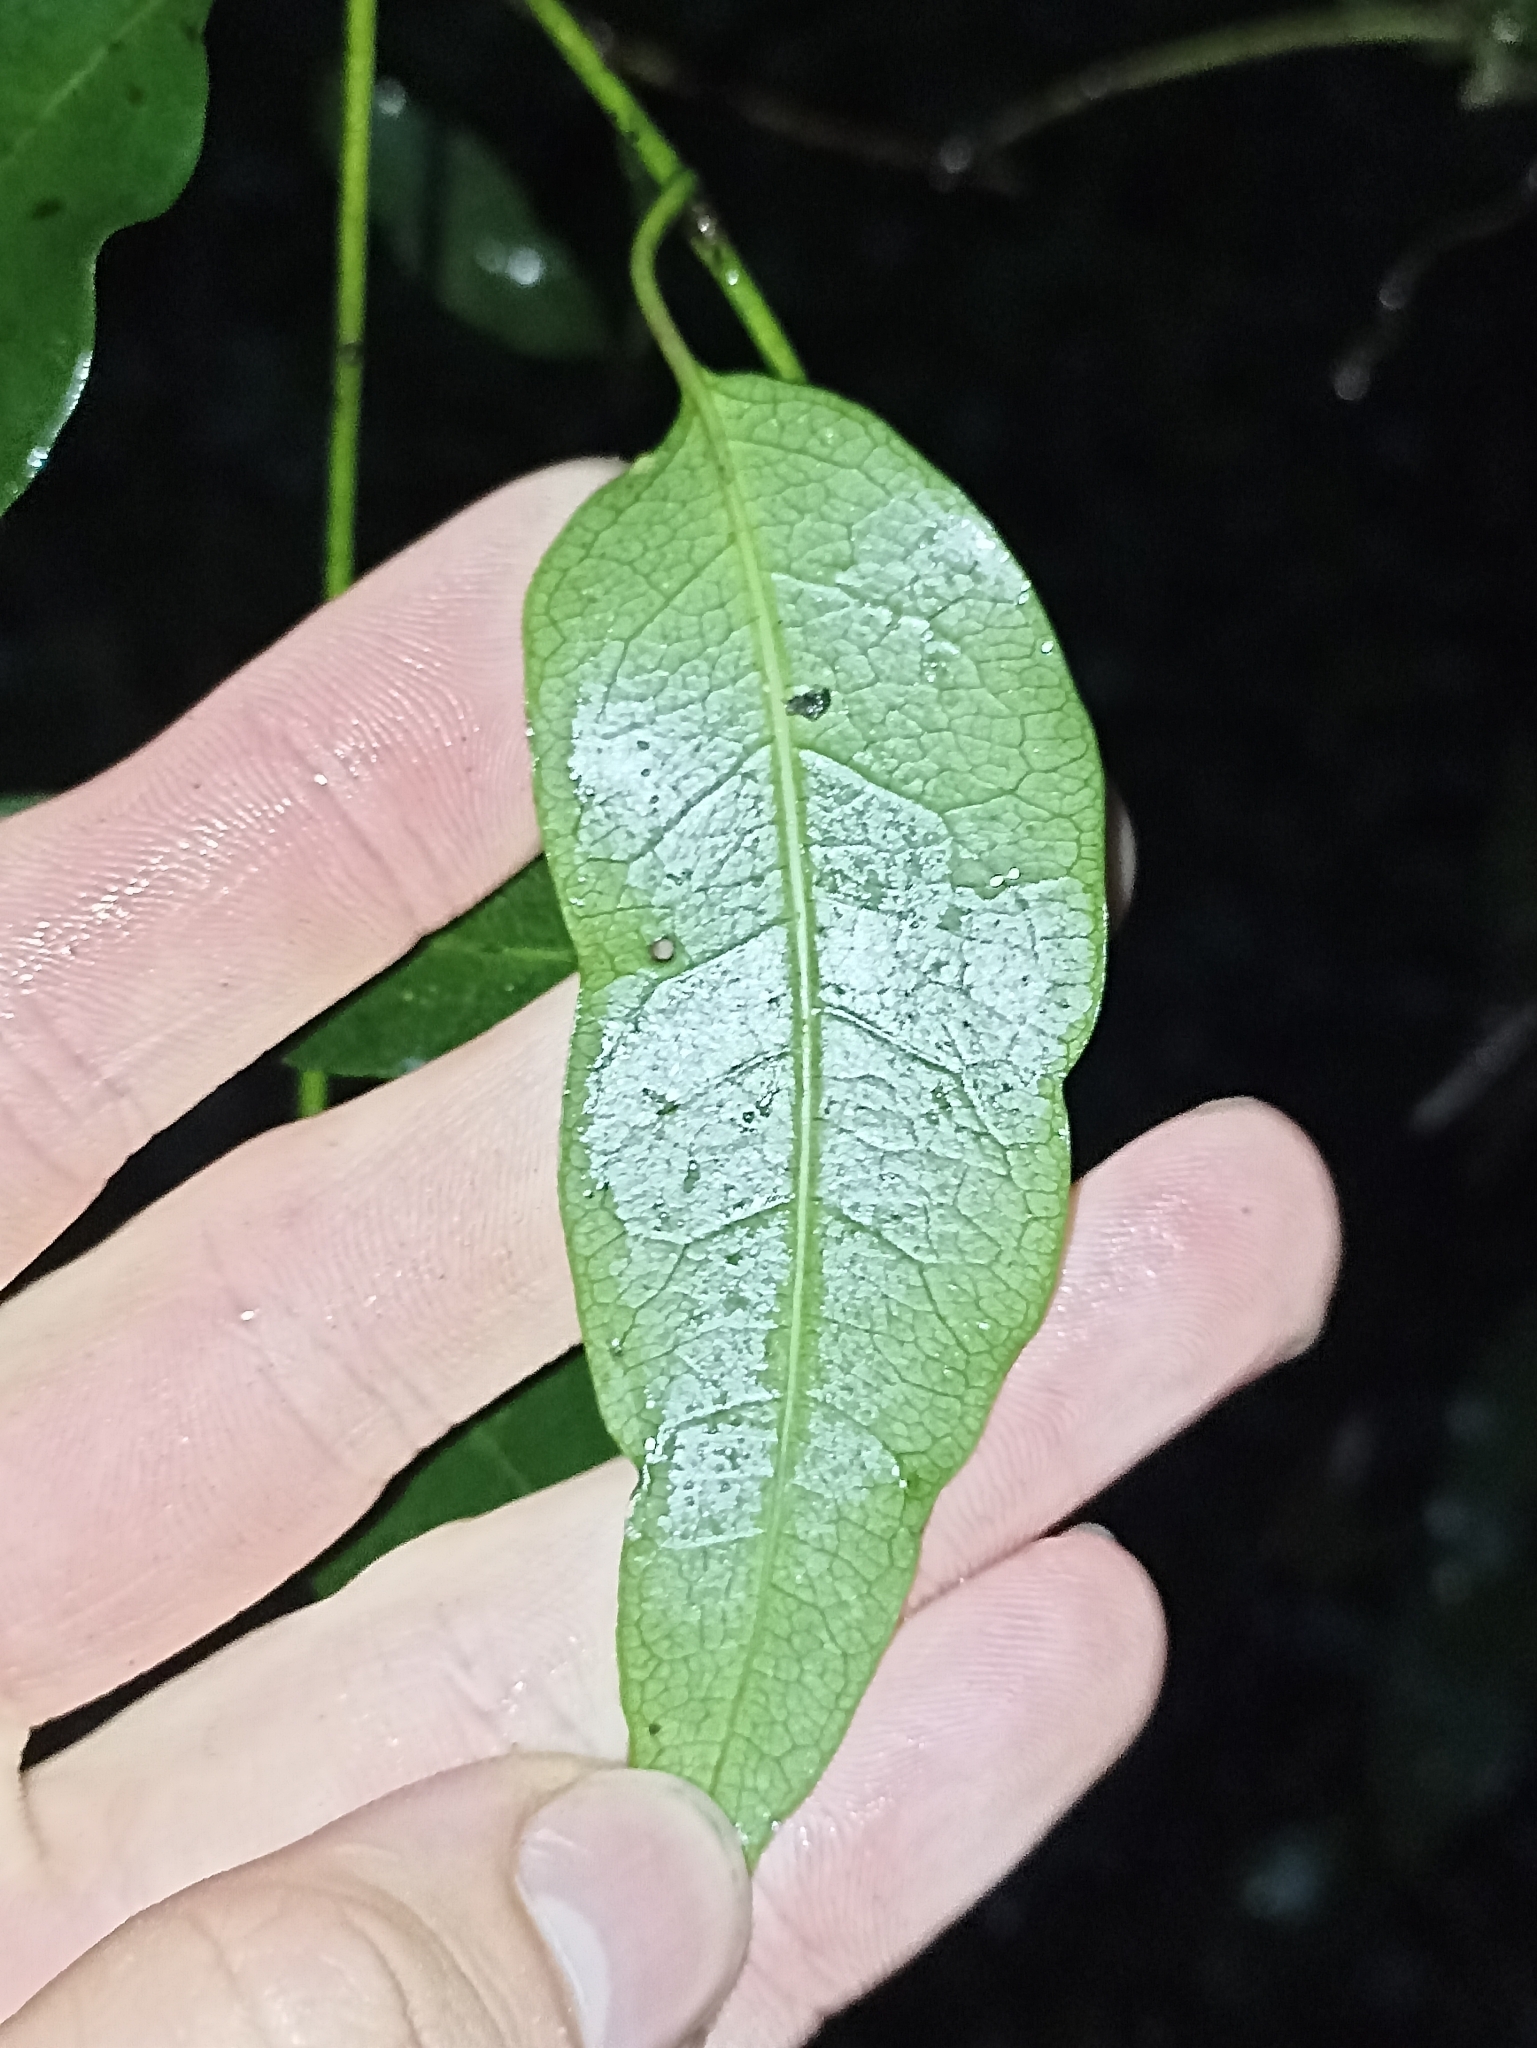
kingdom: Plantae
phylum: Tracheophyta
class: Magnoliopsida
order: Malpighiales
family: Passifloraceae
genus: Passiflora
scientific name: Passiflora tetrandra
